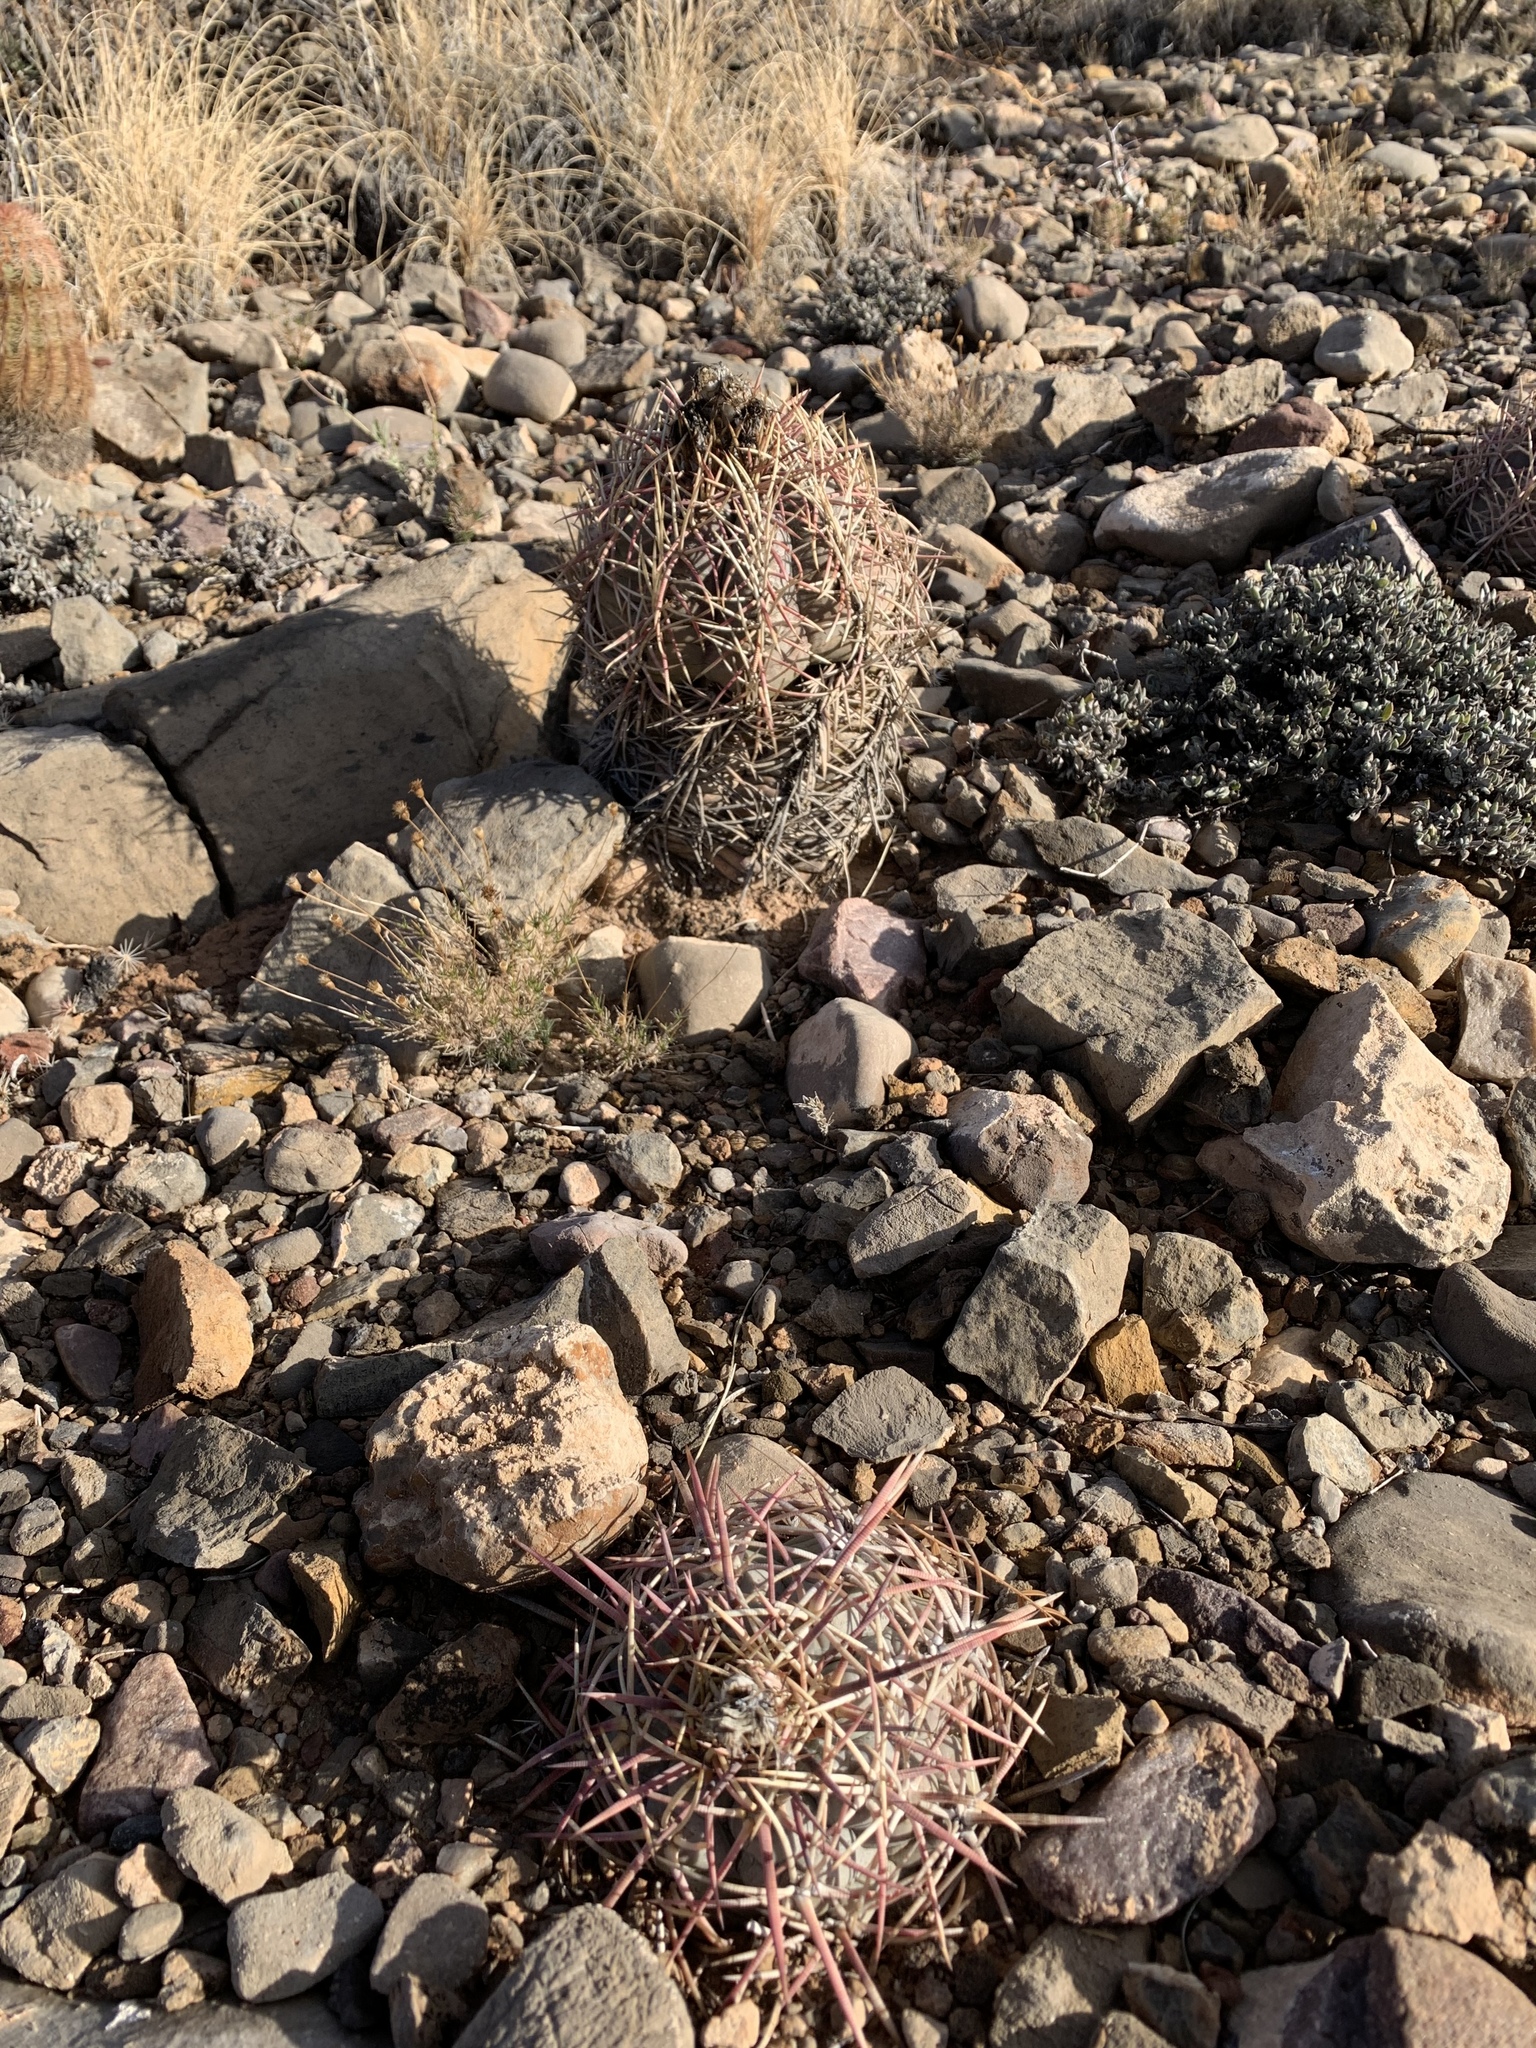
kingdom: Plantae
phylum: Tracheophyta
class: Magnoliopsida
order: Caryophyllales
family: Cactaceae
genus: Echinocactus
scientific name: Echinocactus horizonthalonius
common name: Devilshead
